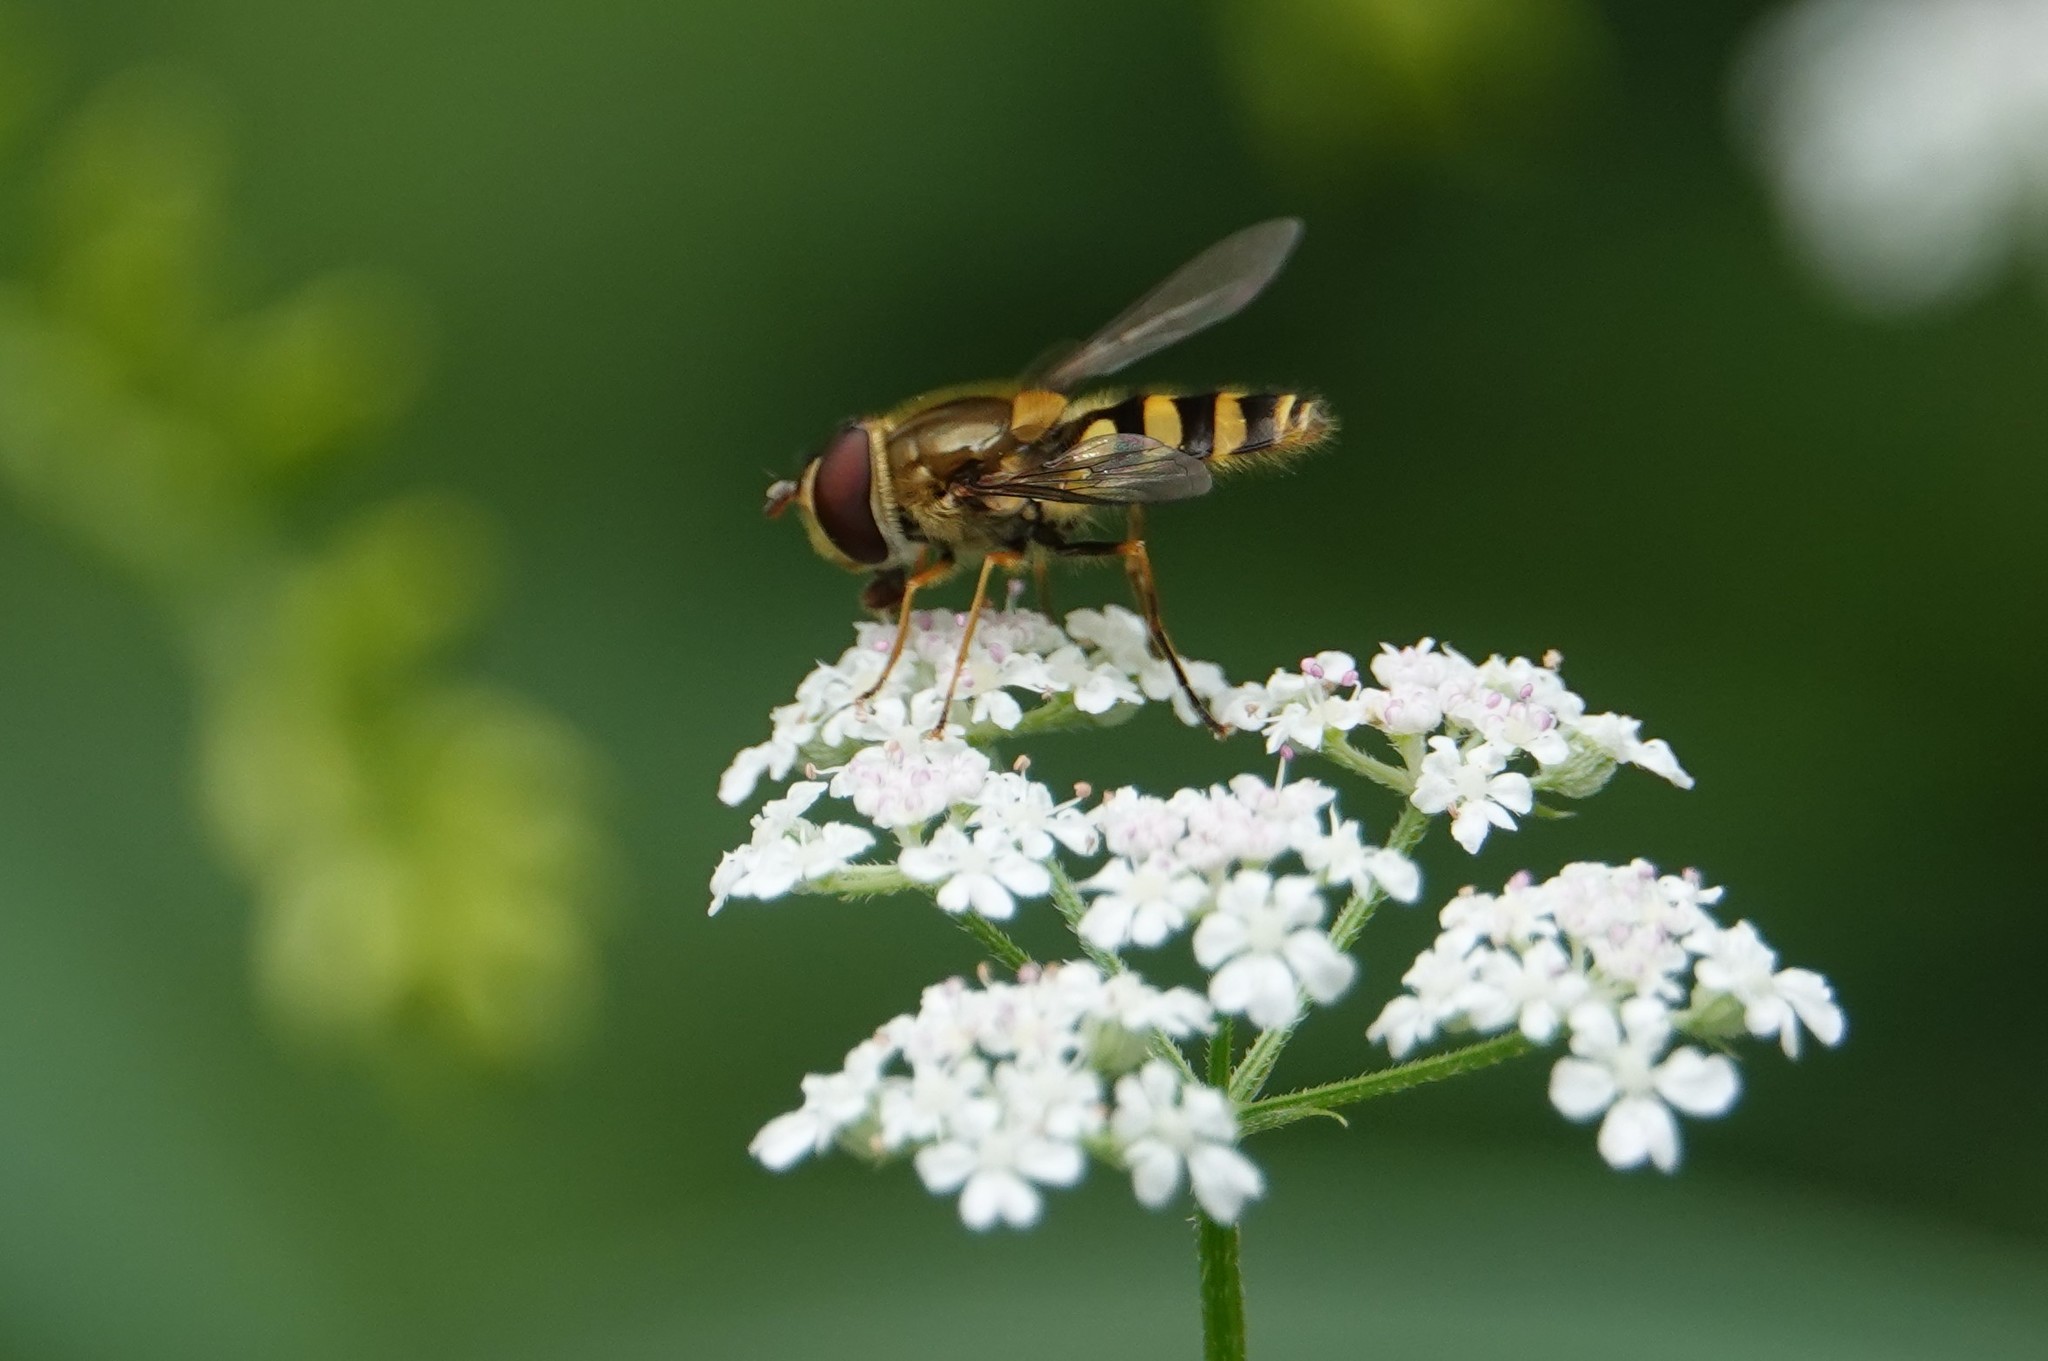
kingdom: Animalia
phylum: Arthropoda
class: Insecta
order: Diptera
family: Syrphidae
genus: Syrphus
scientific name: Syrphus
